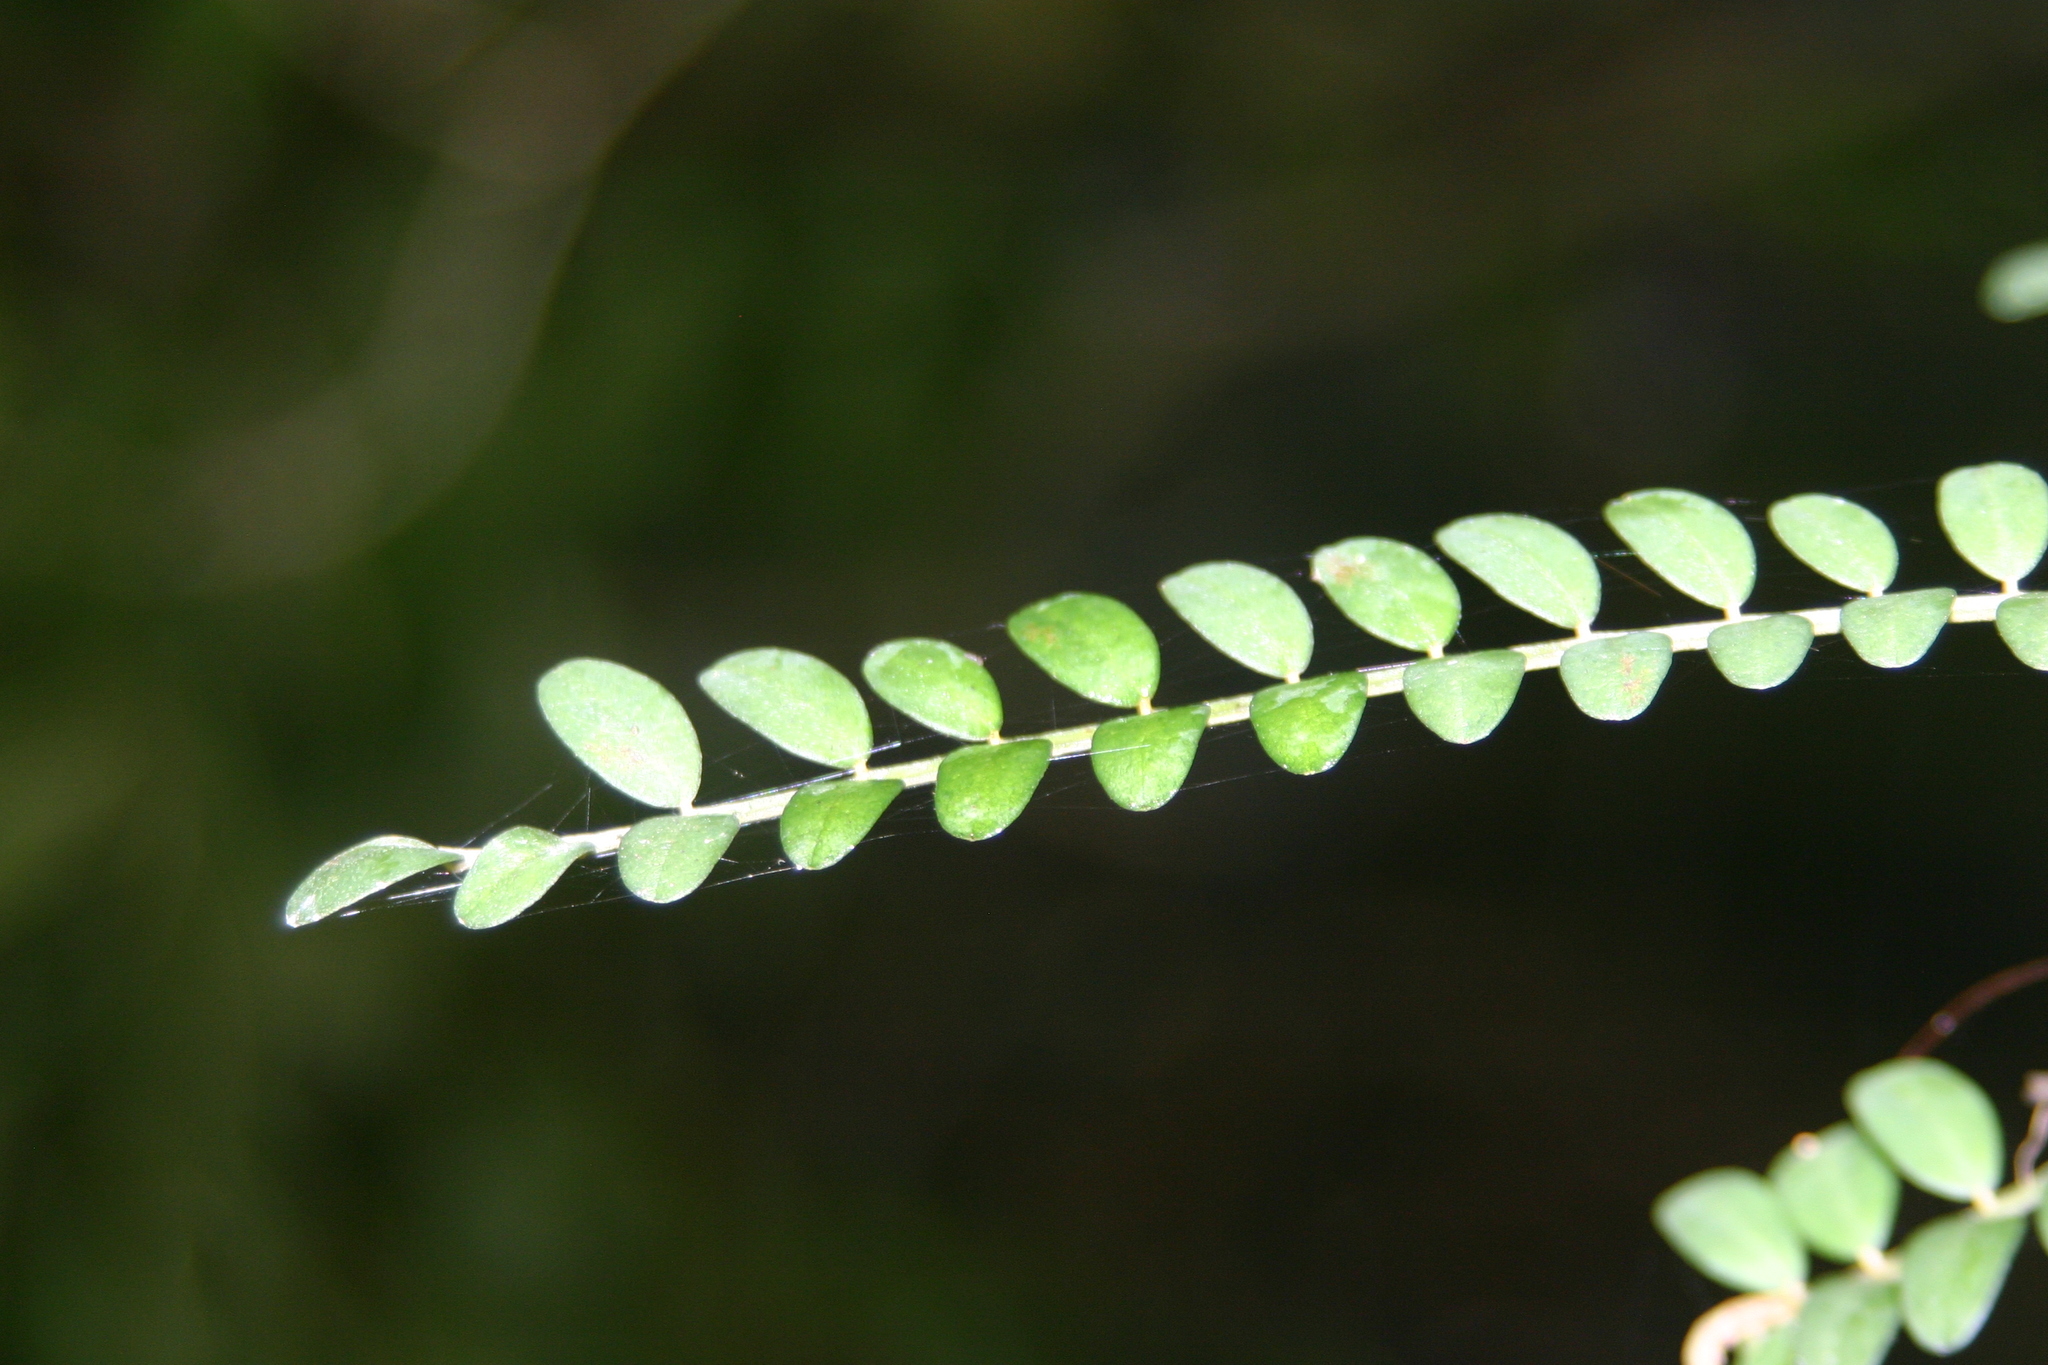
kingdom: Plantae
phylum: Tracheophyta
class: Magnoliopsida
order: Fabales
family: Fabaceae
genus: Sophora
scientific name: Sophora microphylla
